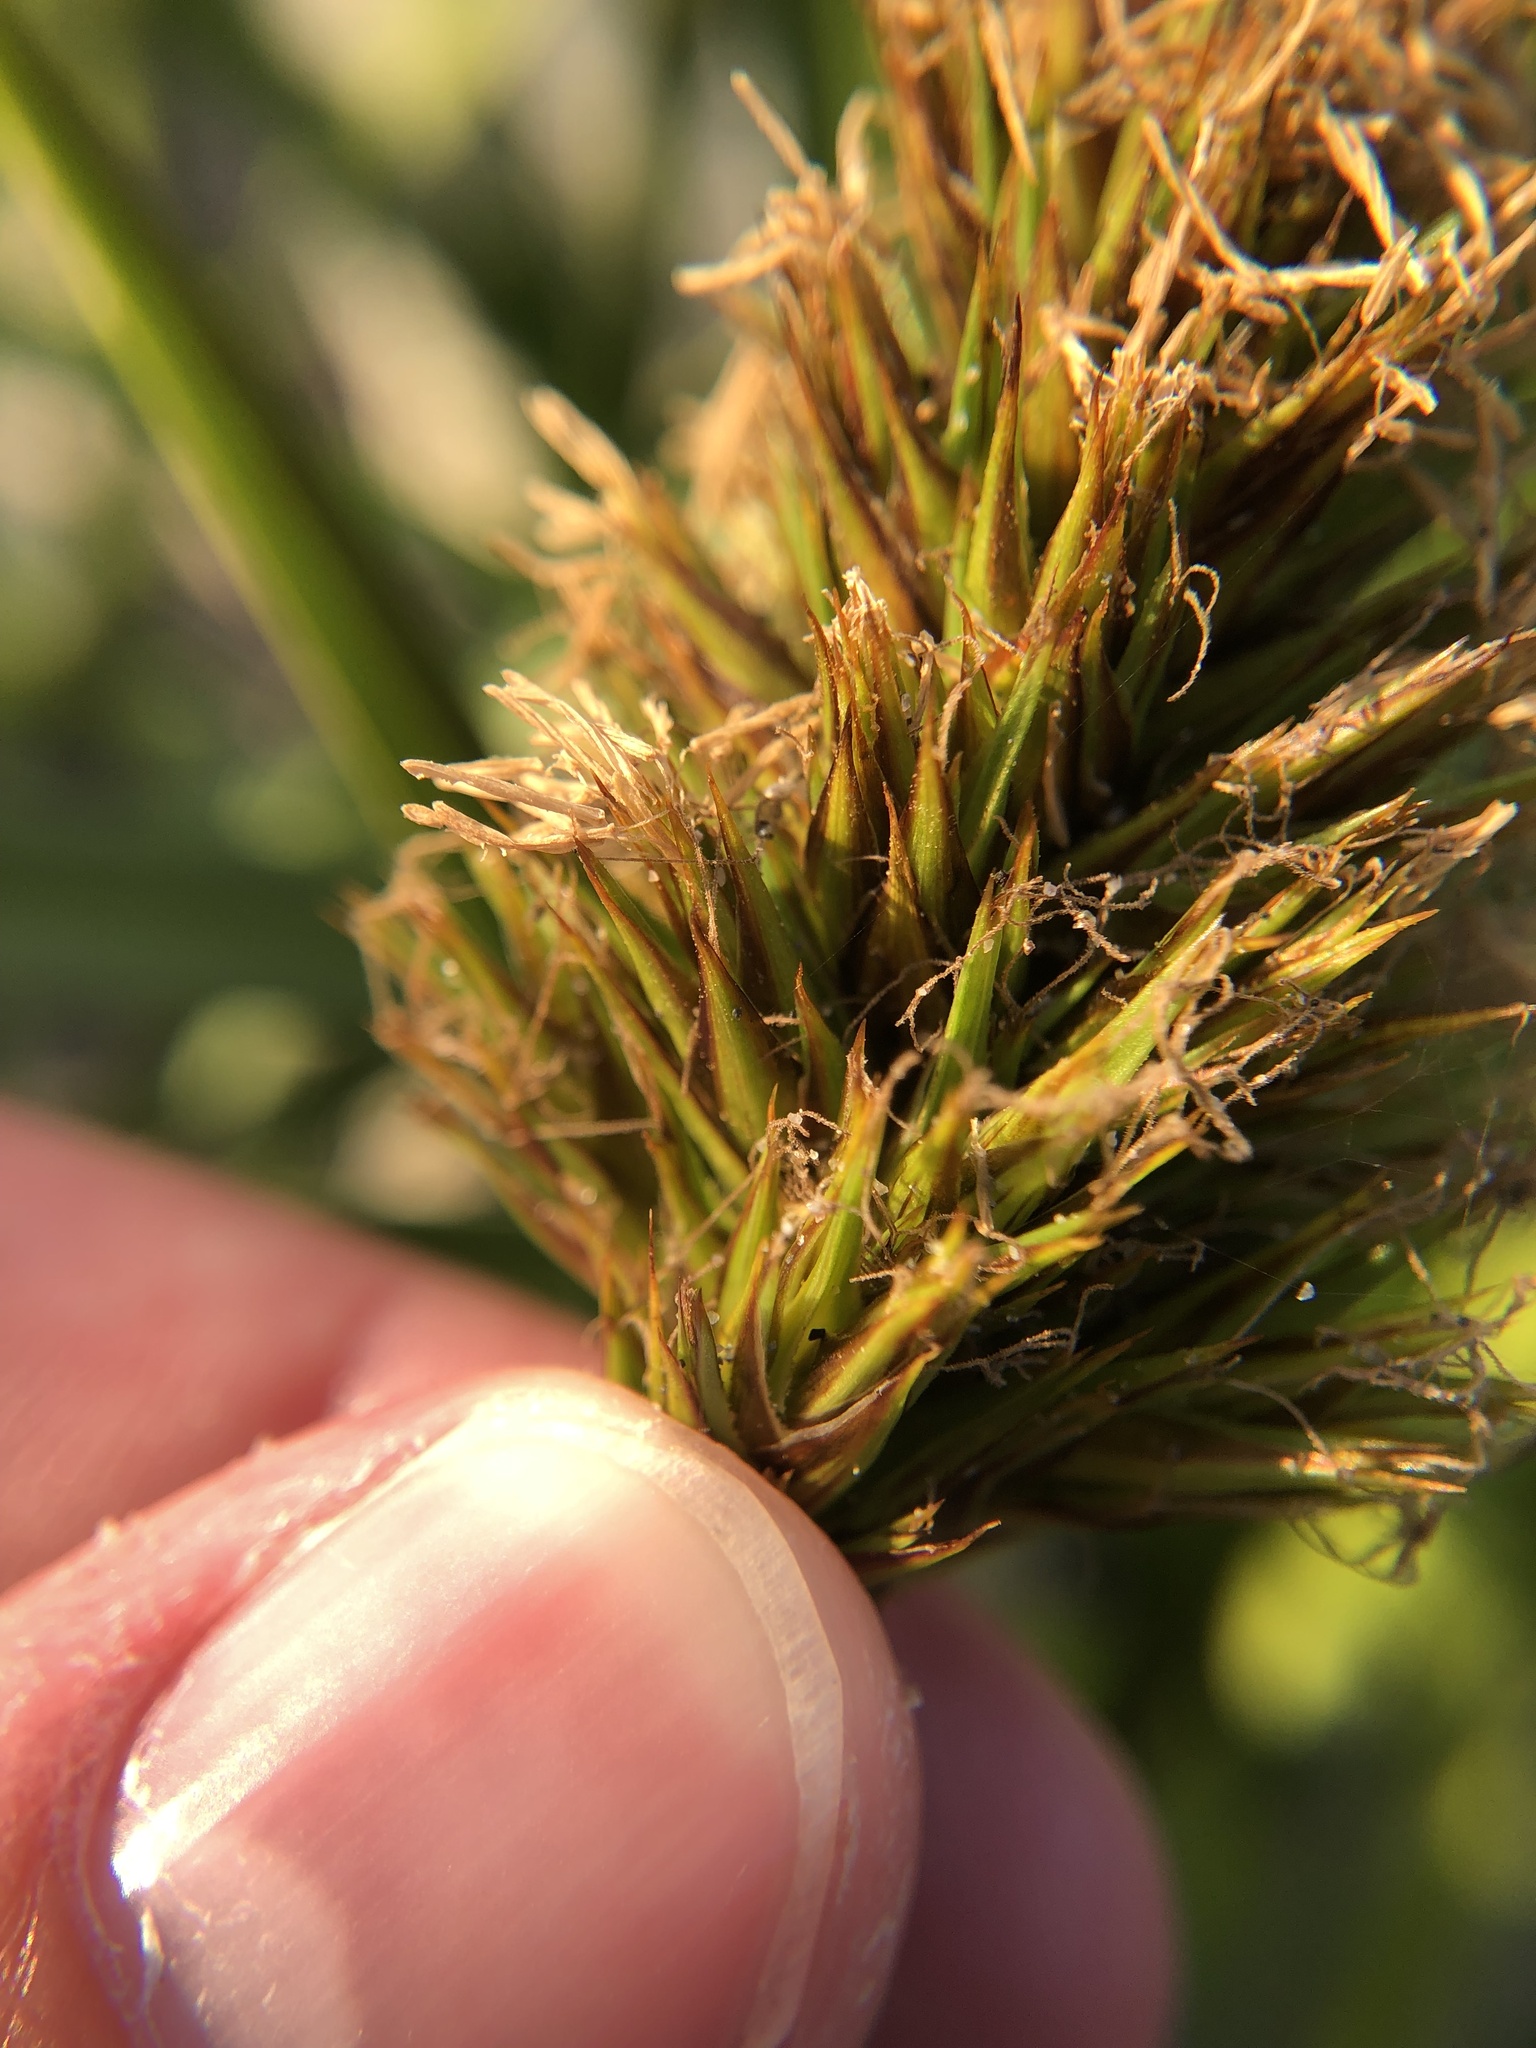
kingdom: Plantae
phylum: Tracheophyta
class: Liliopsida
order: Poales
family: Cyperaceae
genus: Carex
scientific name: Carex macrocephala
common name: Large-head sedge
